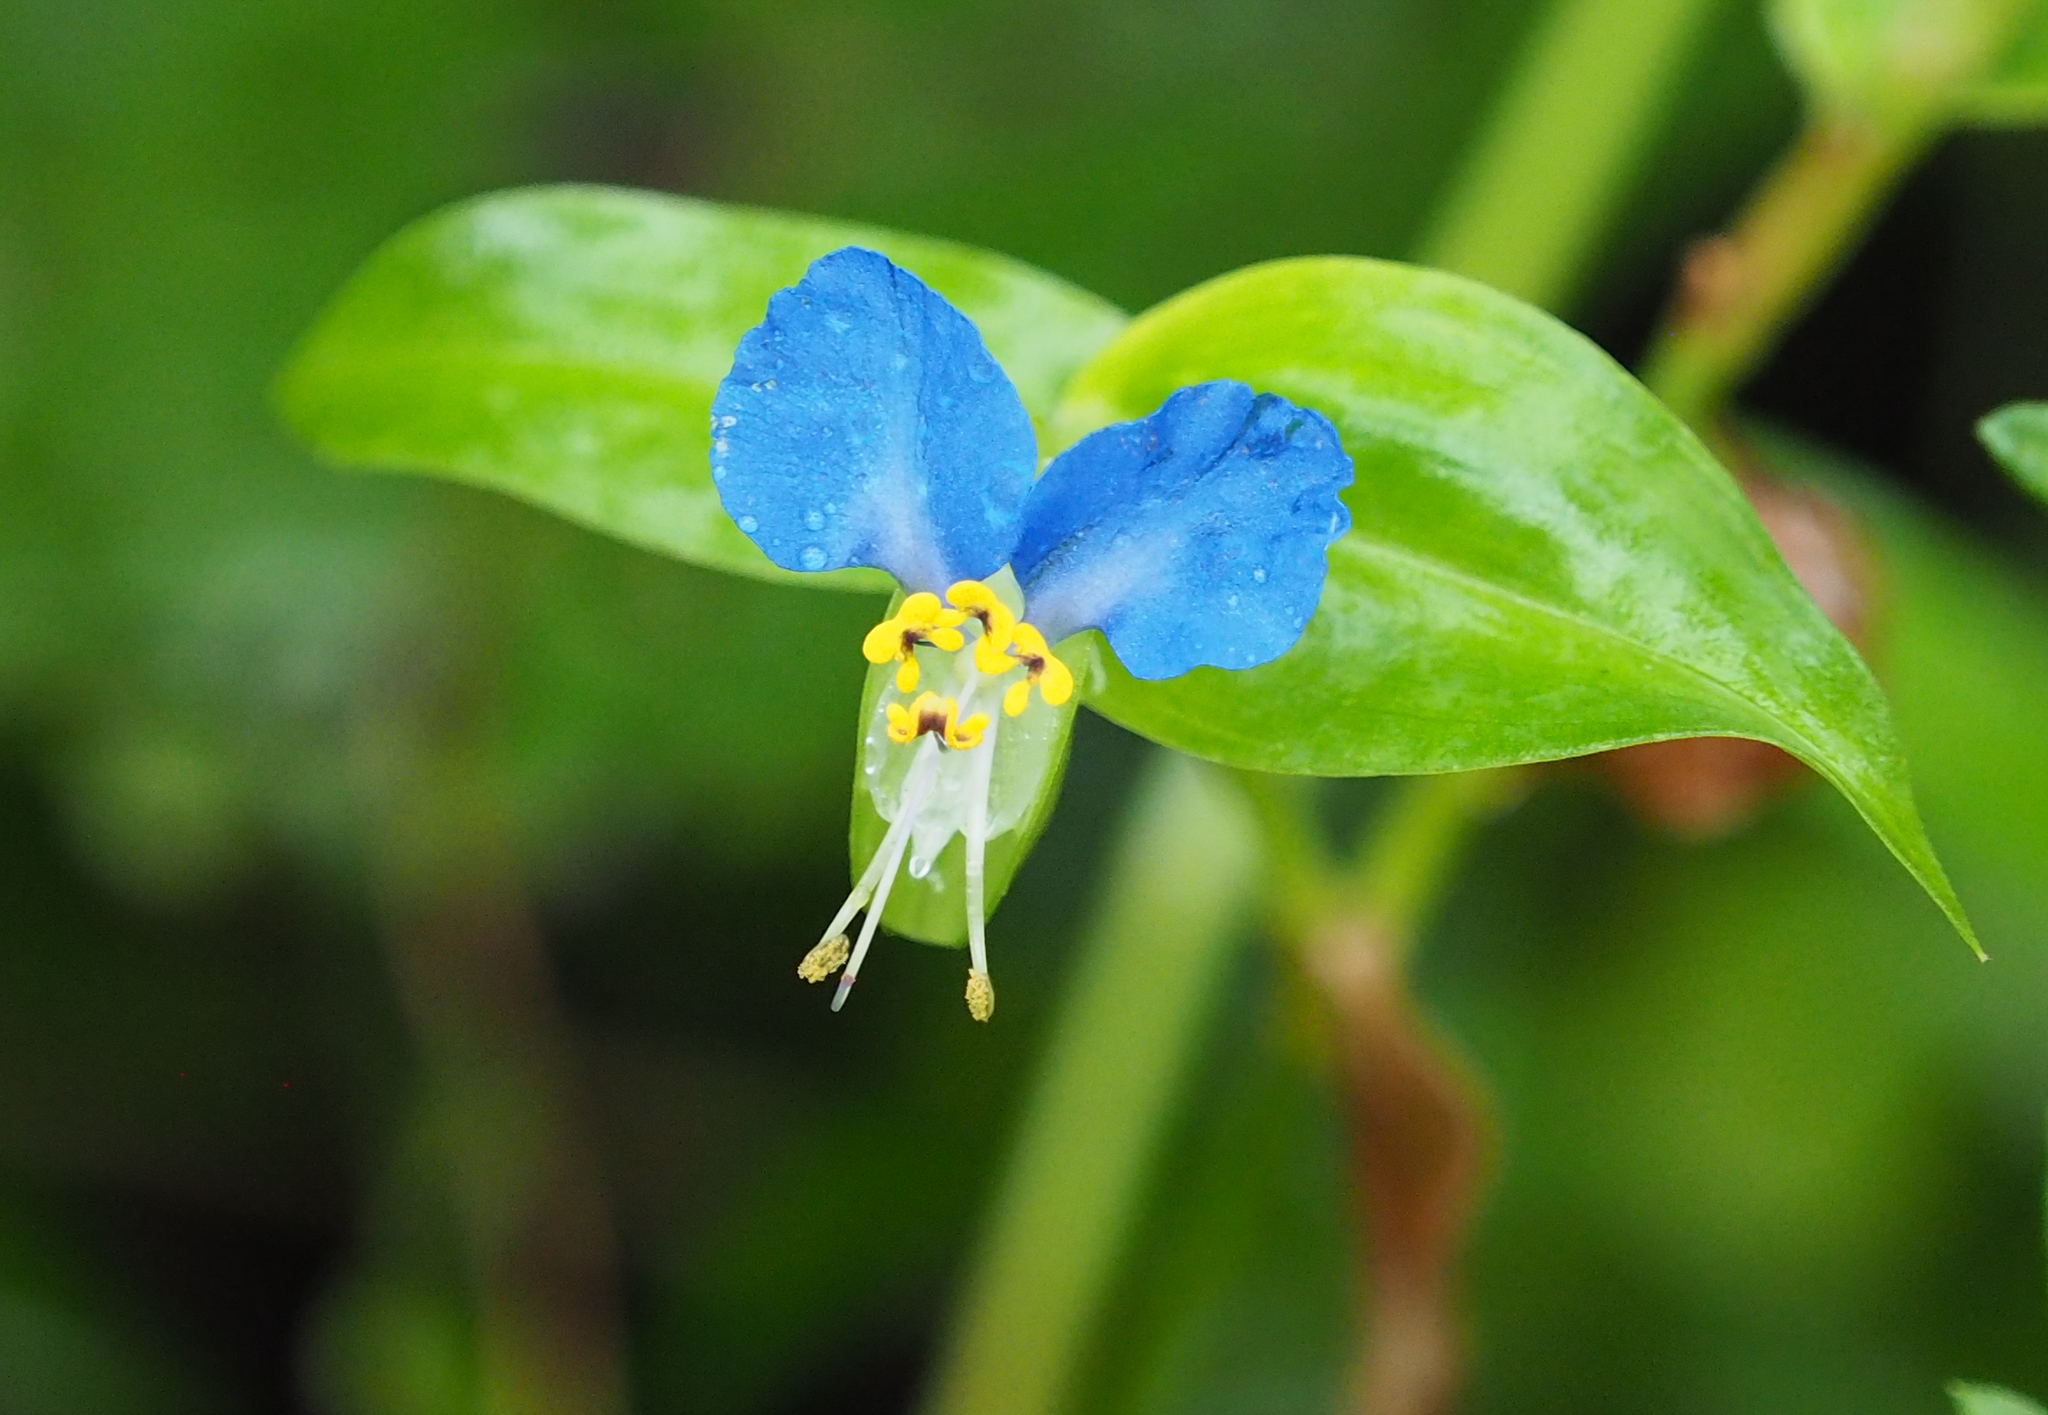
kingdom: Plantae
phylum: Tracheophyta
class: Liliopsida
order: Commelinales
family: Commelinaceae
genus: Commelina
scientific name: Commelina communis
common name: Asiatic dayflower
